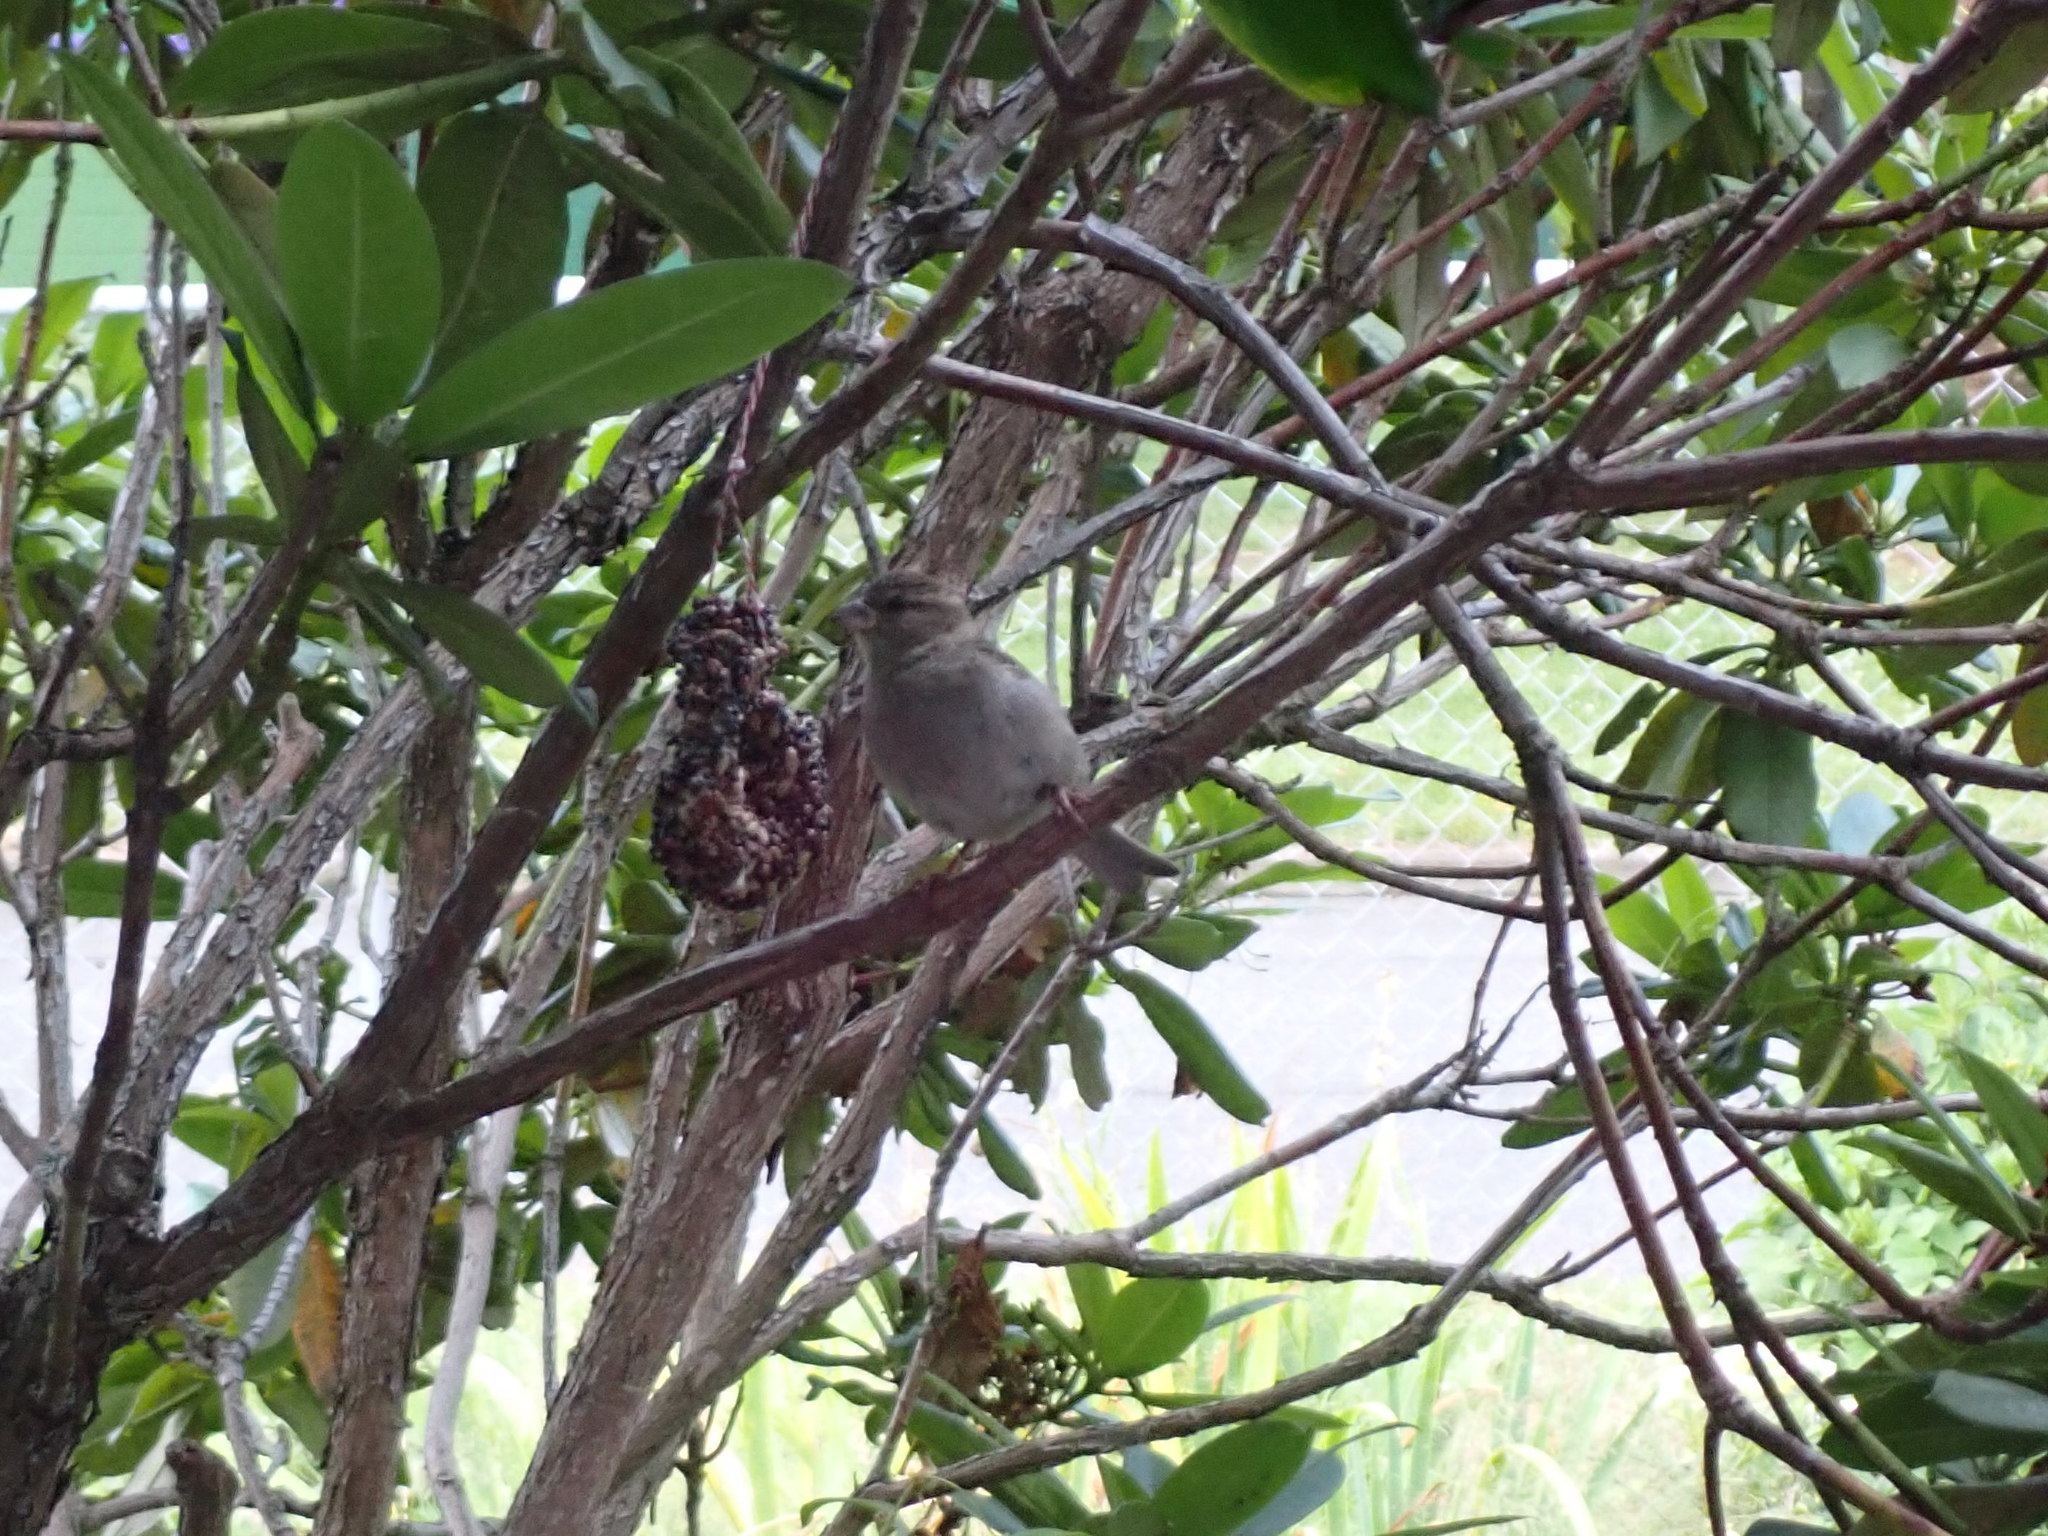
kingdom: Animalia
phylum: Chordata
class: Aves
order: Passeriformes
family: Passeridae
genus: Passer
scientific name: Passer domesticus
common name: House sparrow
